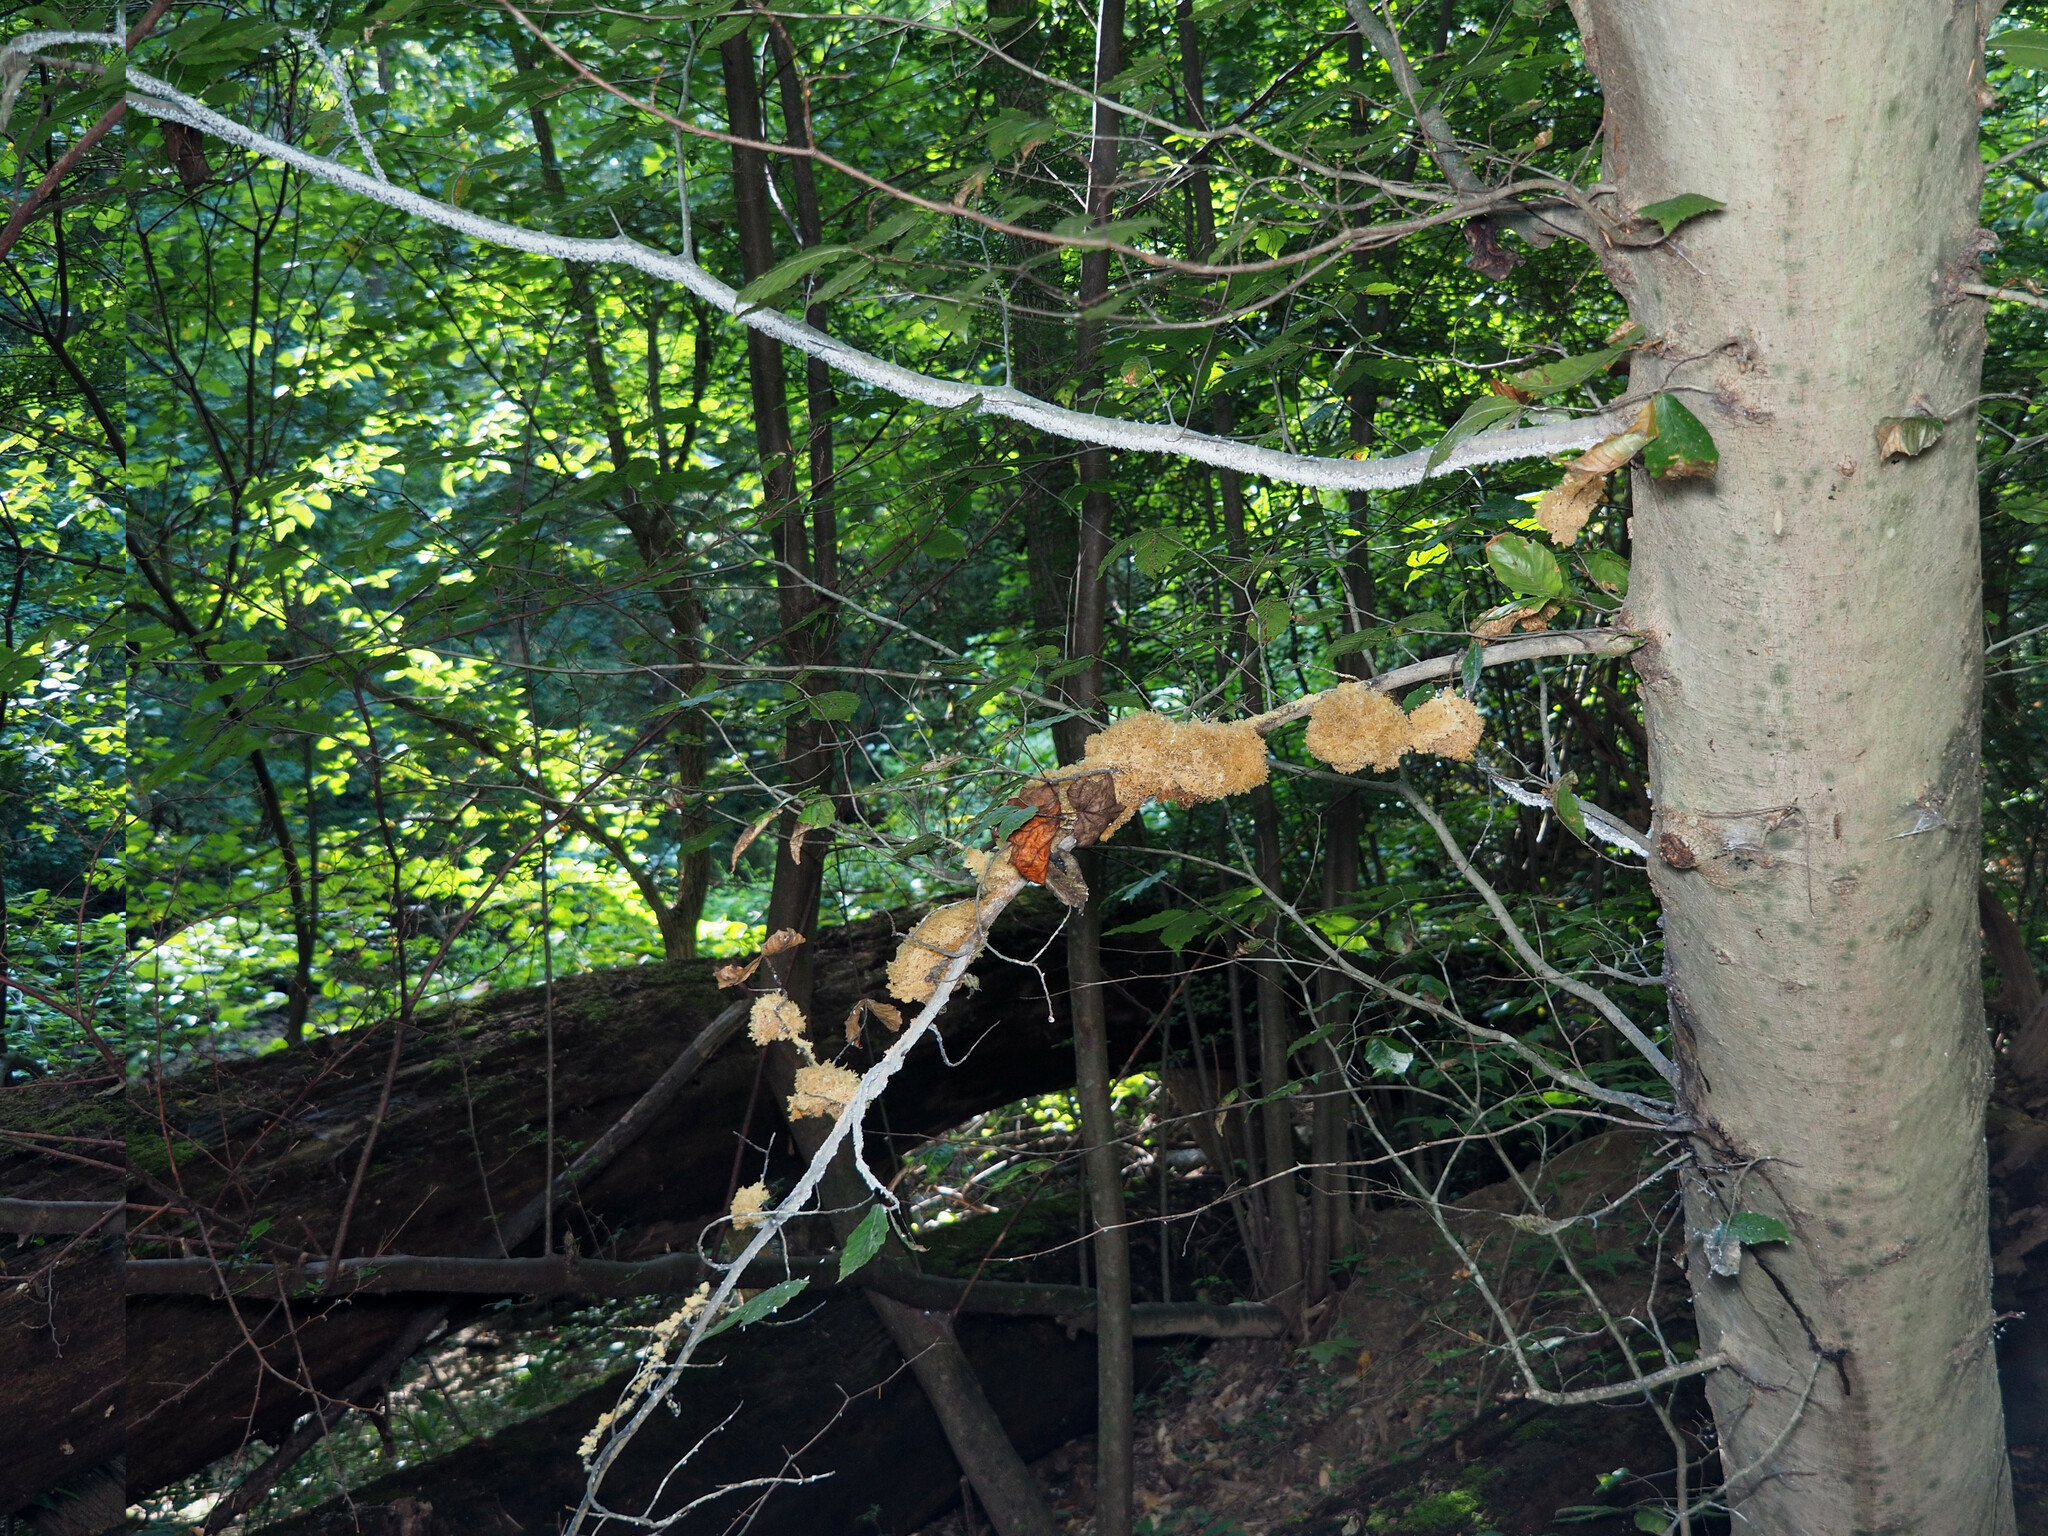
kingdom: Animalia
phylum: Arthropoda
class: Insecta
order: Hemiptera
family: Aphididae
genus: Grylloprociphilus
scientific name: Grylloprociphilus imbricator
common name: Beech blight aphid
